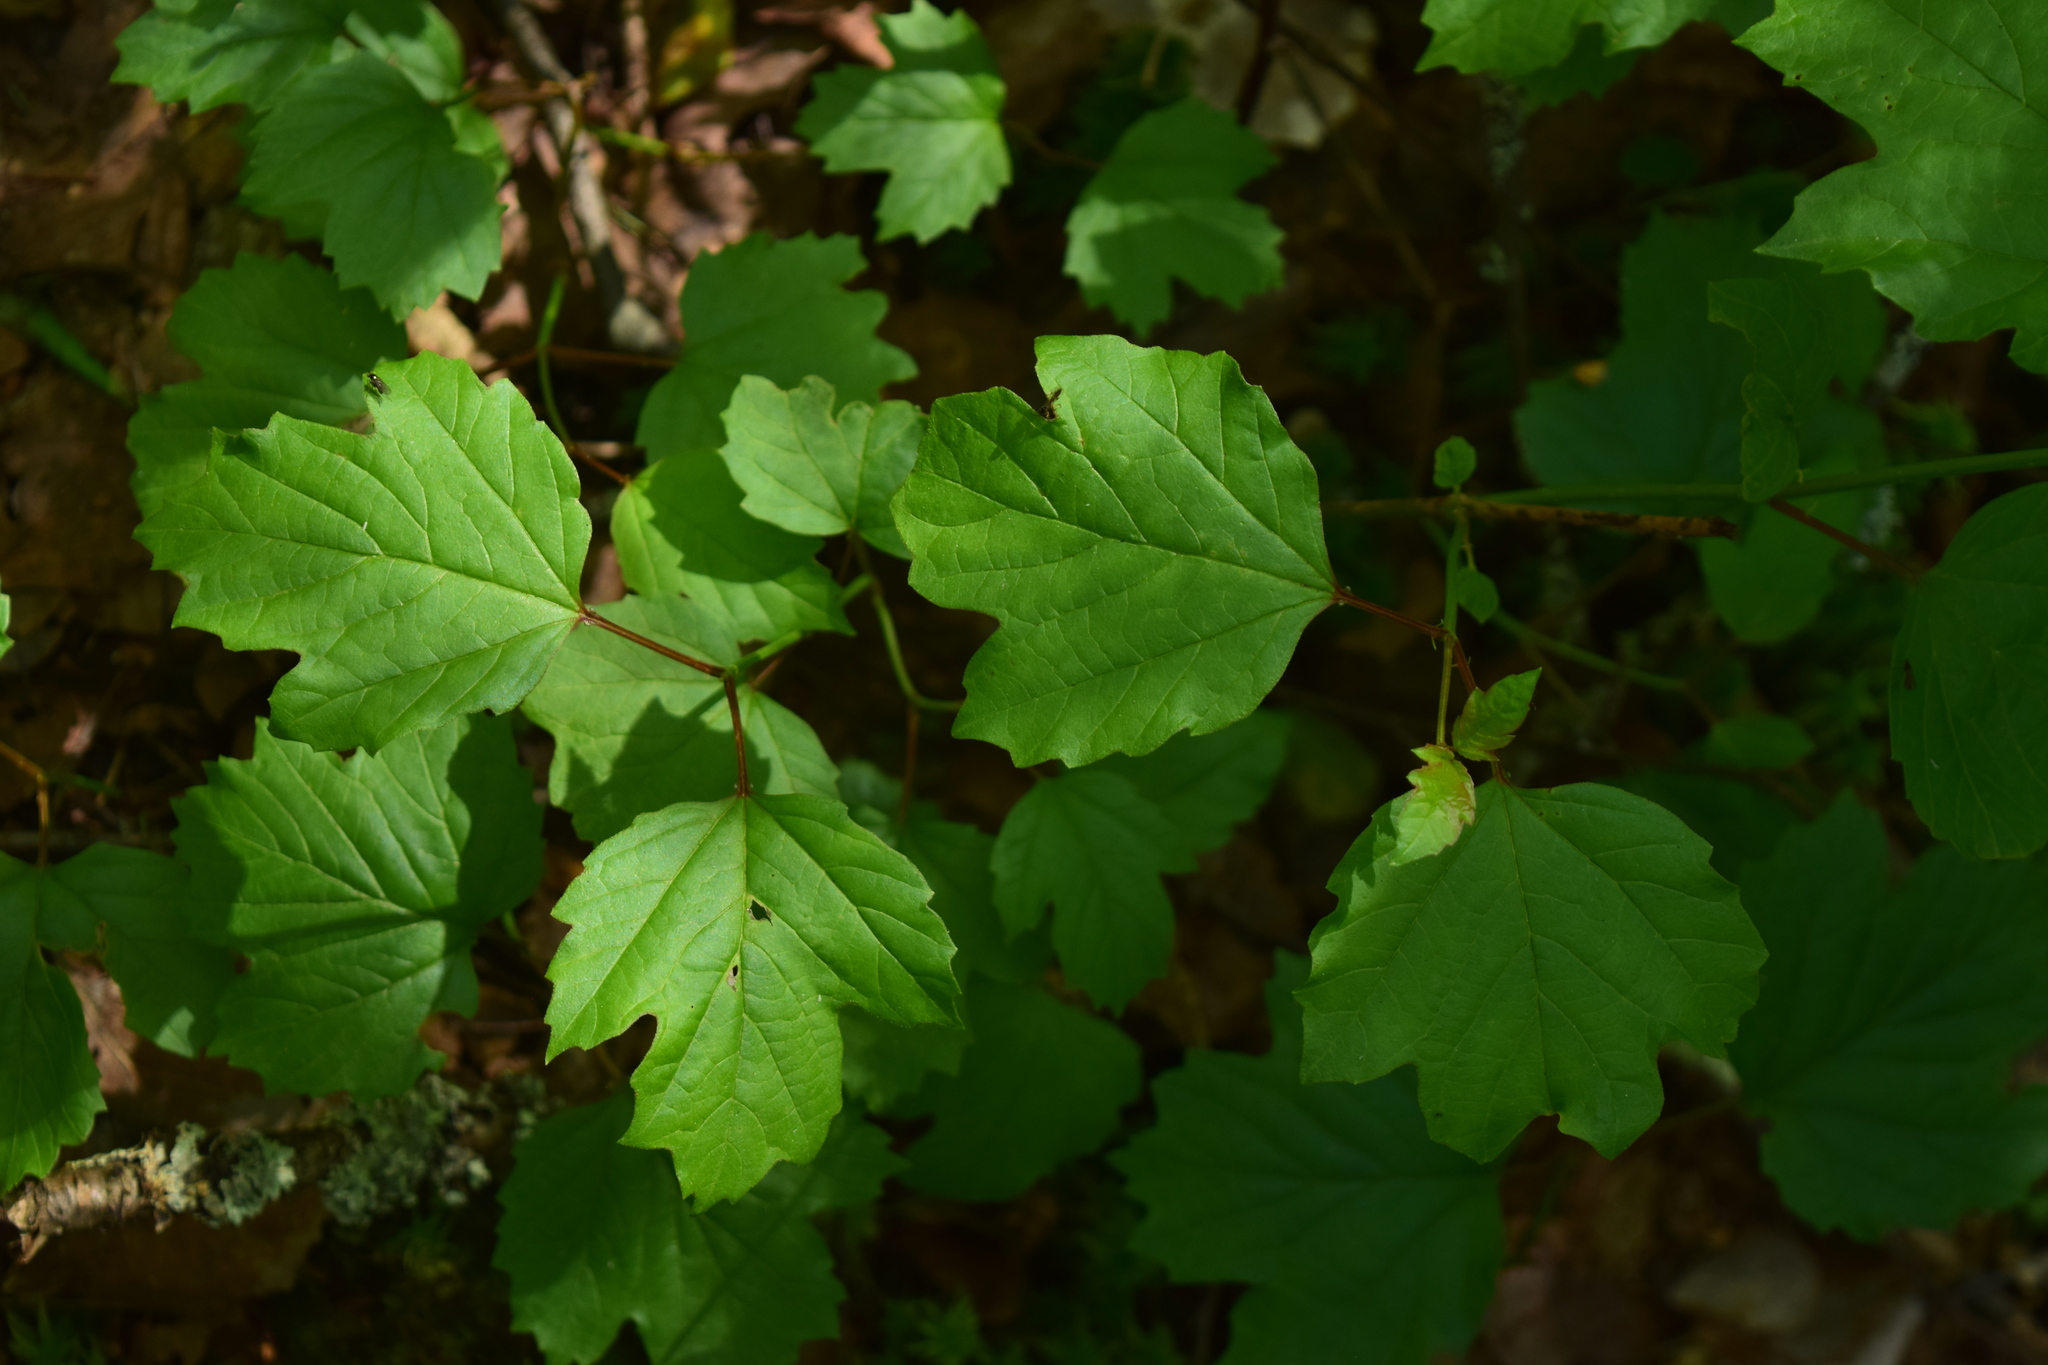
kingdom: Plantae
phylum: Tracheophyta
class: Magnoliopsida
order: Dipsacales
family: Viburnaceae
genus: Viburnum
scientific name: Viburnum opulus
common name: Guelder-rose
